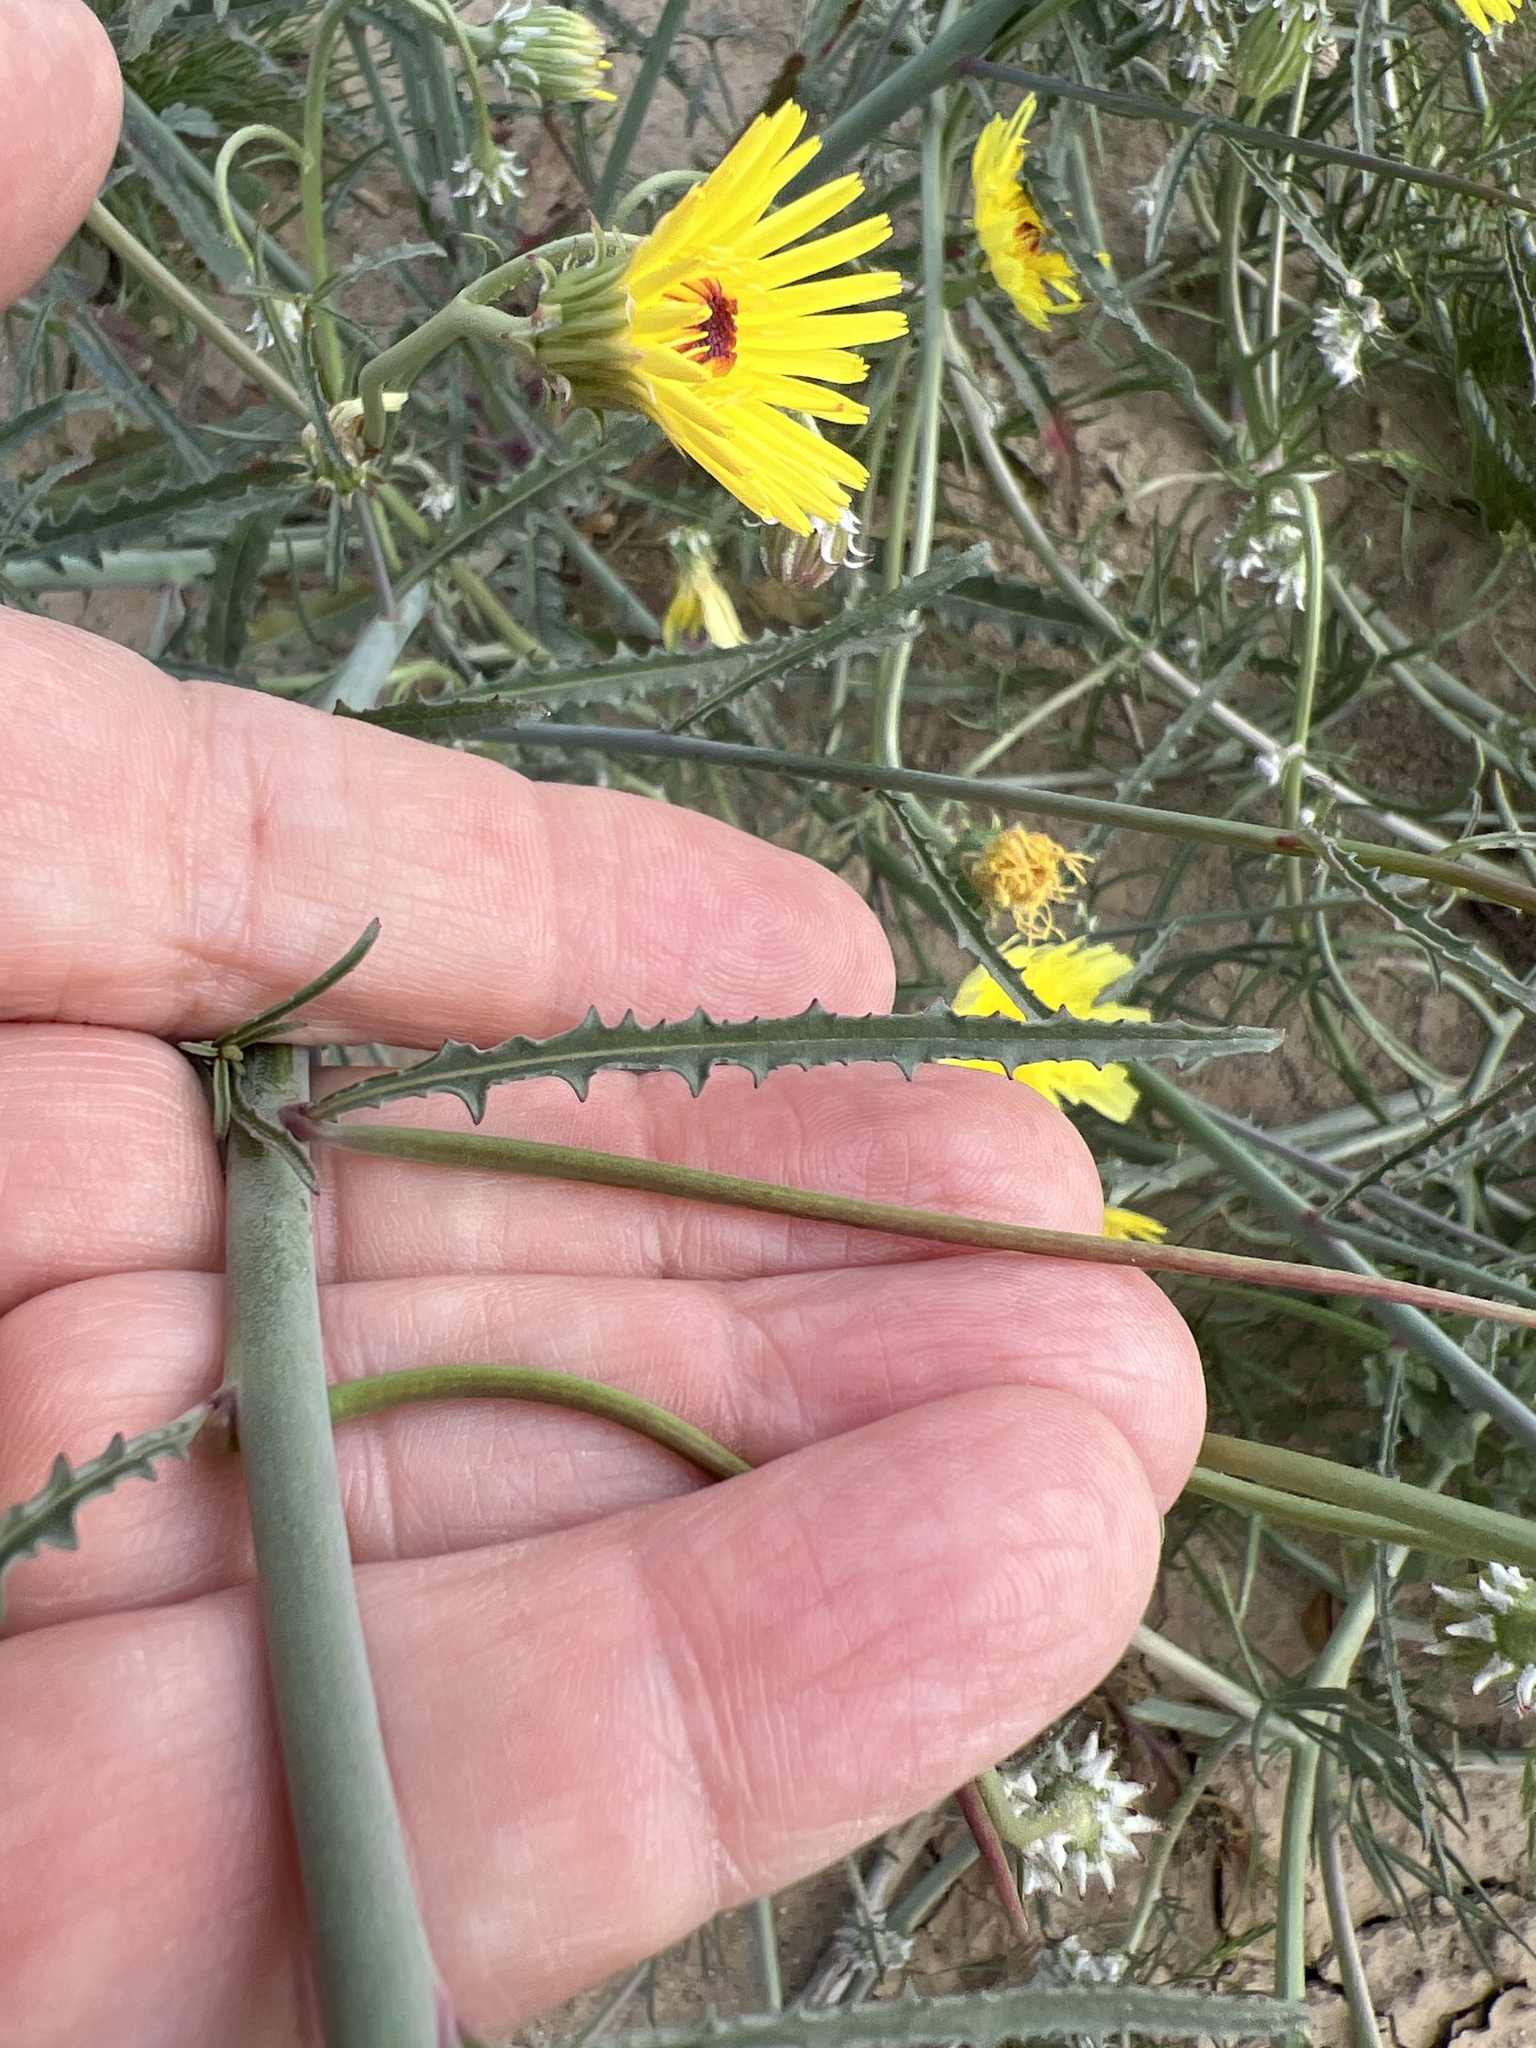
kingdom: Plantae
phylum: Tracheophyta
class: Magnoliopsida
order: Asterales
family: Asteraceae
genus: Malacothrix
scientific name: Malacothrix glabrata
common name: Smooth desert-dandelion
